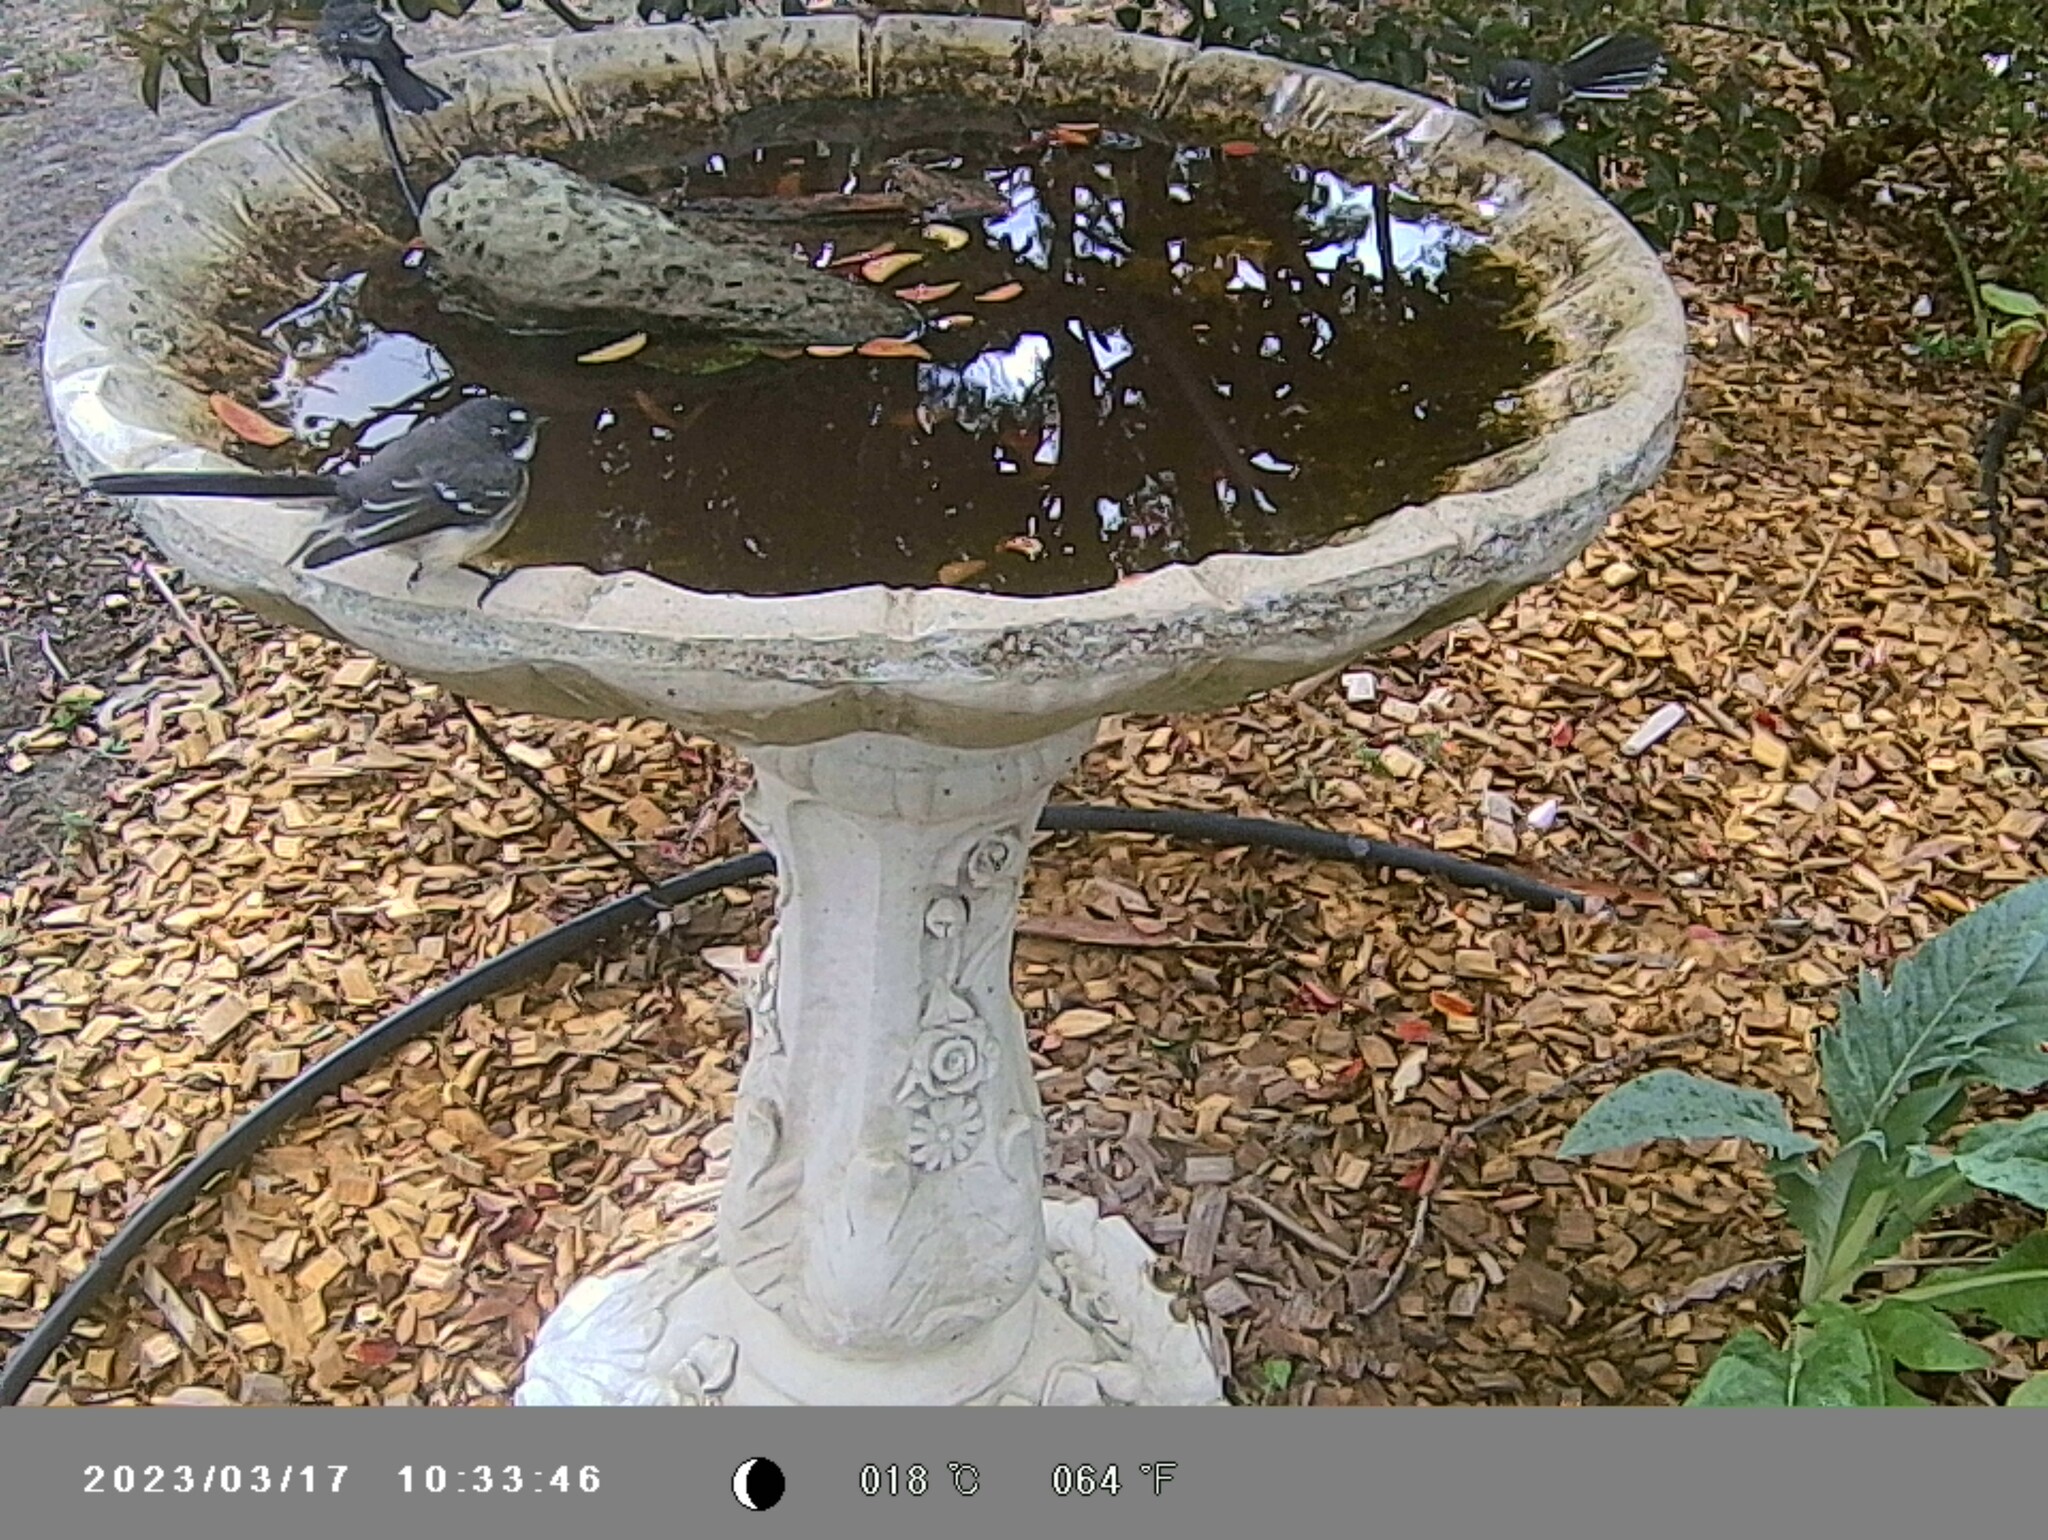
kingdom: Animalia
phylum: Chordata
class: Aves
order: Passeriformes
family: Rhipiduridae
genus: Rhipidura
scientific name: Rhipidura albiscapa
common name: Grey fantail
